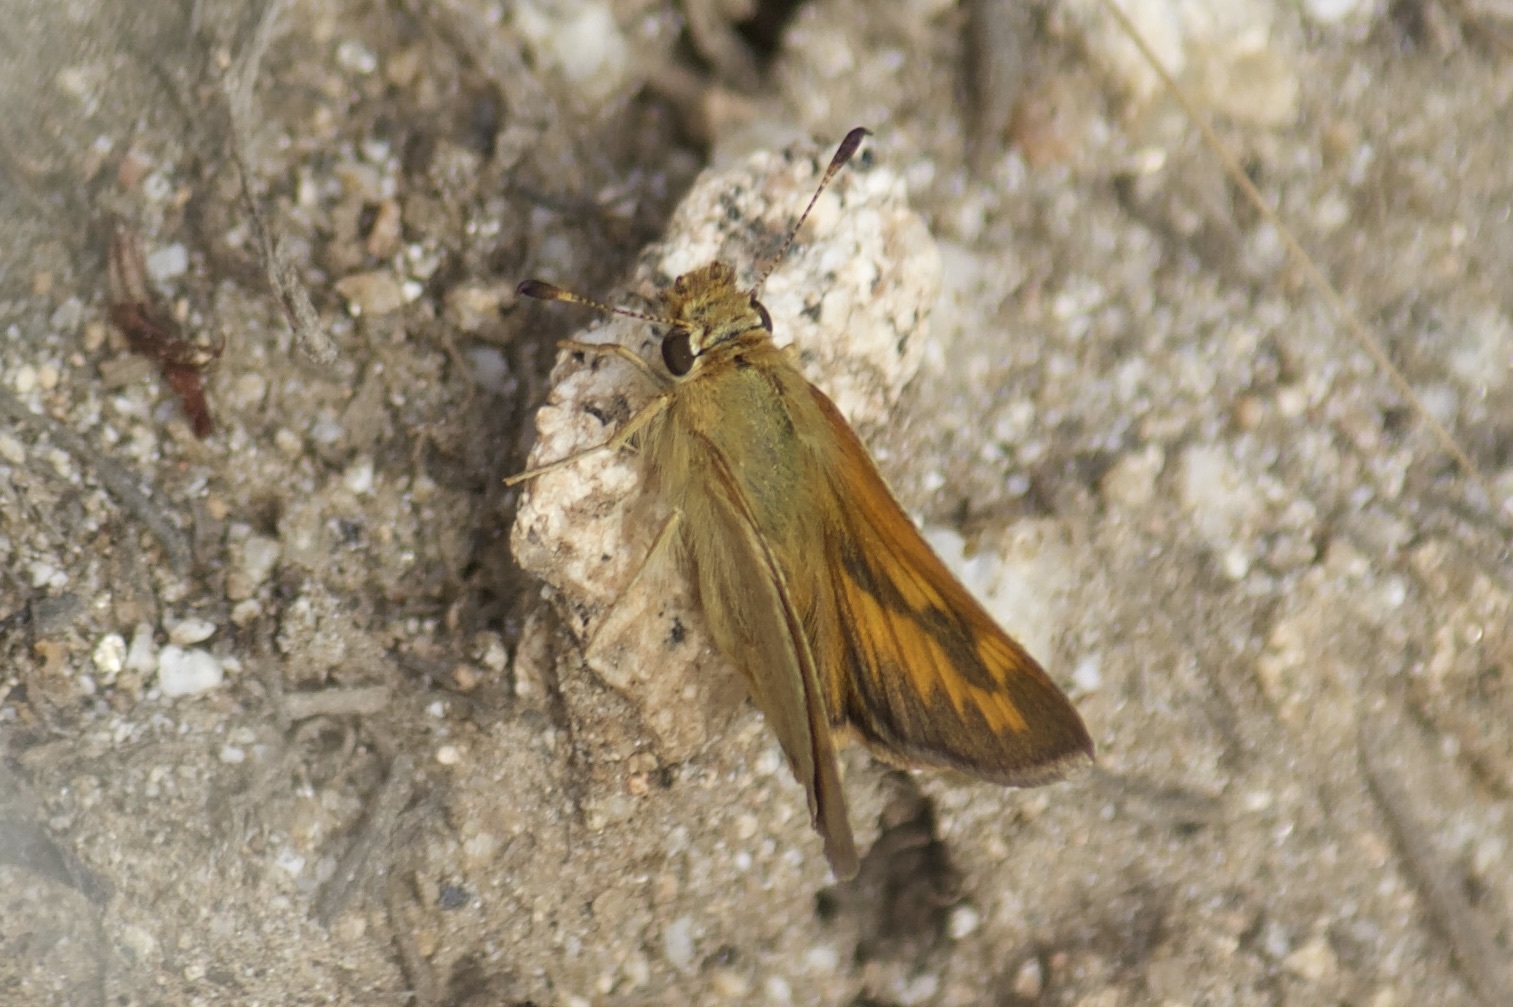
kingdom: Animalia
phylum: Arthropoda
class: Insecta
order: Lepidoptera
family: Hesperiidae
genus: Ochlodes
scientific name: Ochlodes sylvanoides
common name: Woodland skipper
